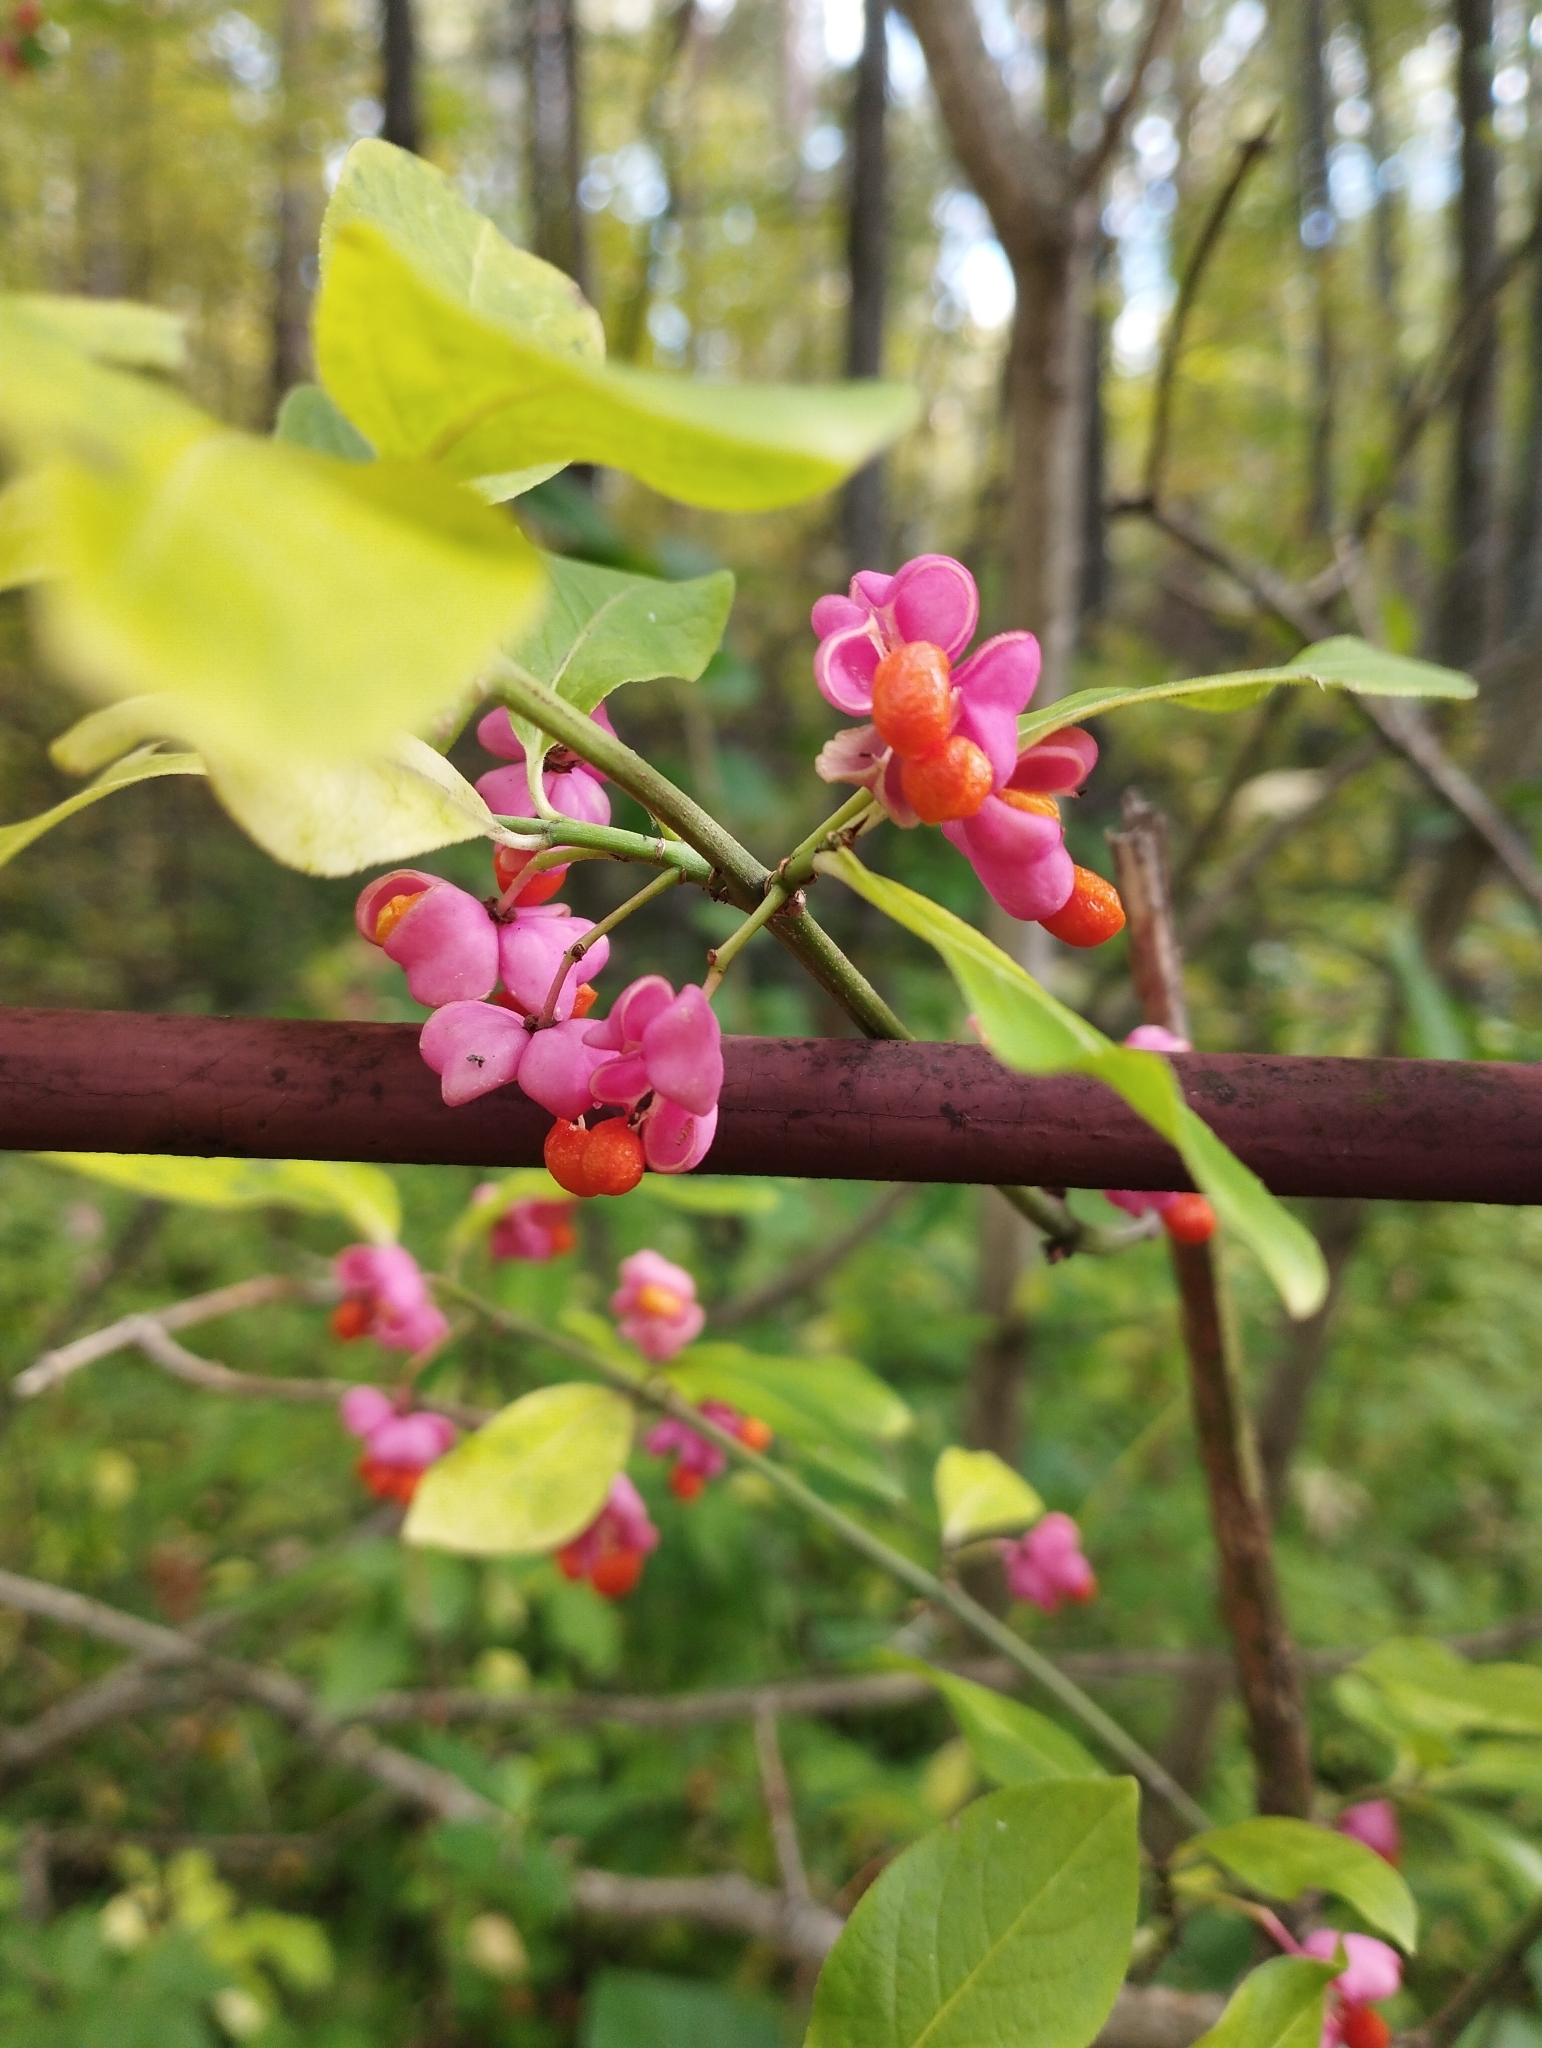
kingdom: Plantae
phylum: Tracheophyta
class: Magnoliopsida
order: Celastrales
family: Celastraceae
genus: Euonymus
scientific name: Euonymus europaeus
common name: Spindle
